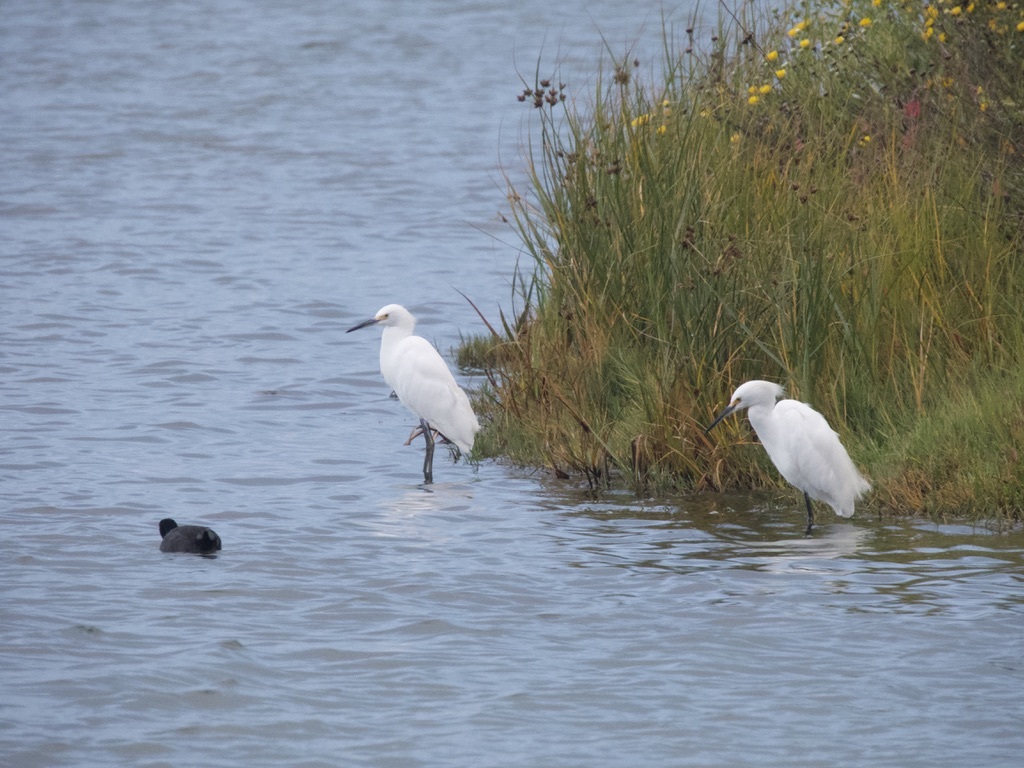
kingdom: Animalia
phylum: Chordata
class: Aves
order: Pelecaniformes
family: Ardeidae
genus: Egretta
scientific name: Egretta thula
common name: Snowy egret
